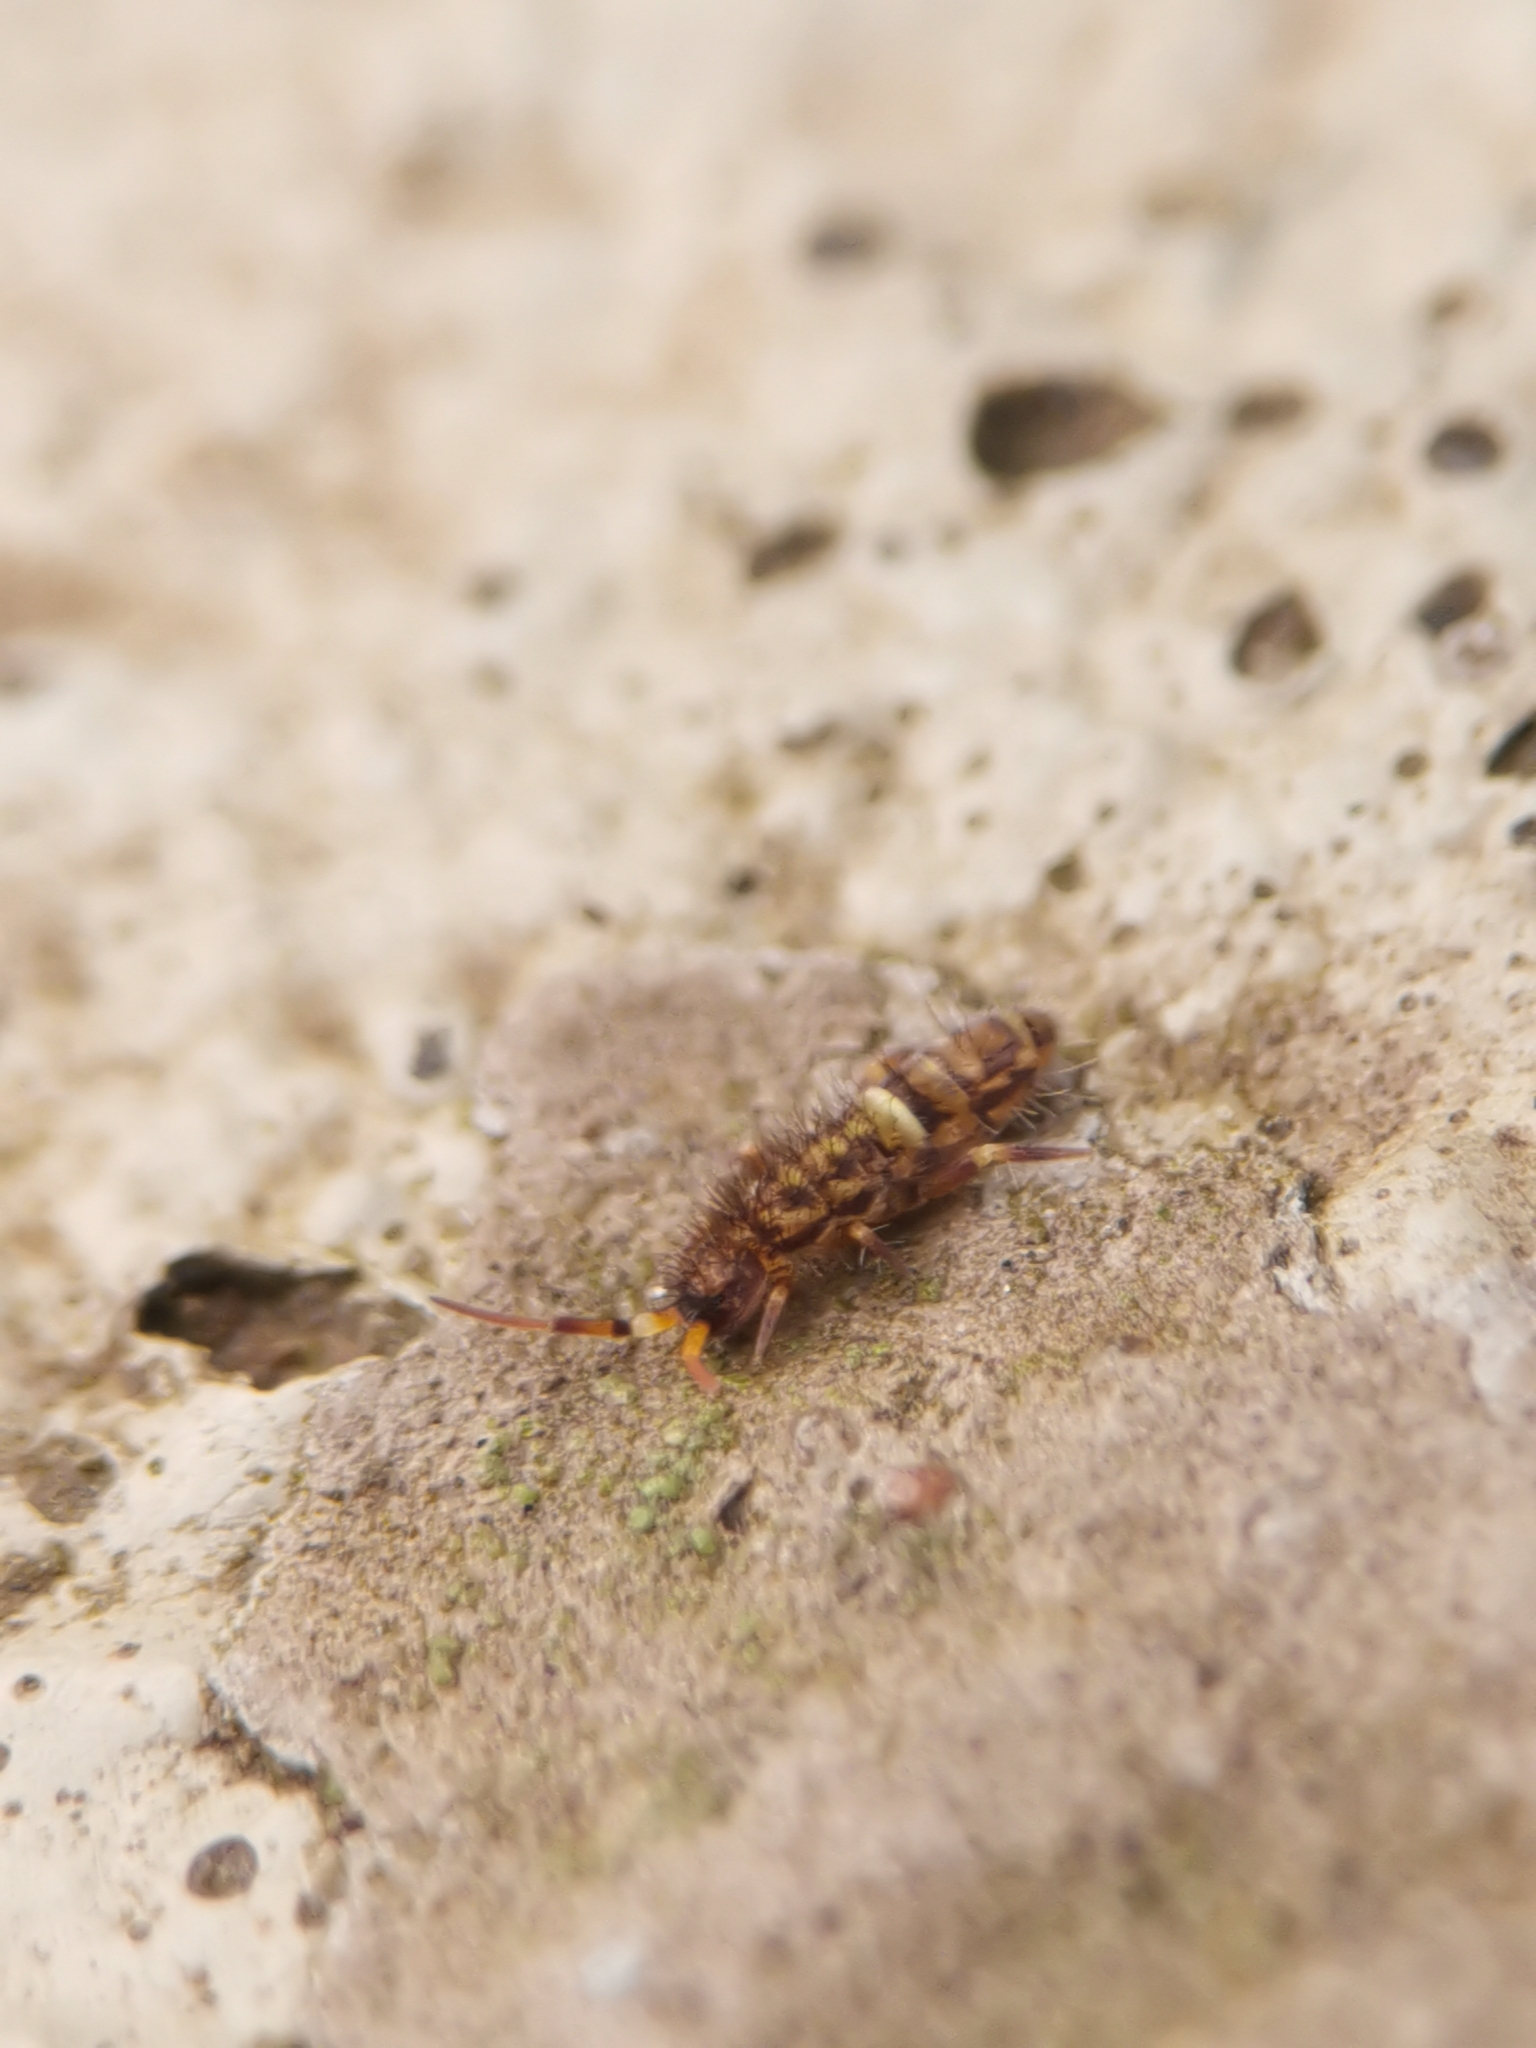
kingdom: Animalia
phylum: Arthropoda
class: Collembola
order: Entomobryomorpha
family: Orchesellidae
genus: Orchesella
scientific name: Orchesella cincta
